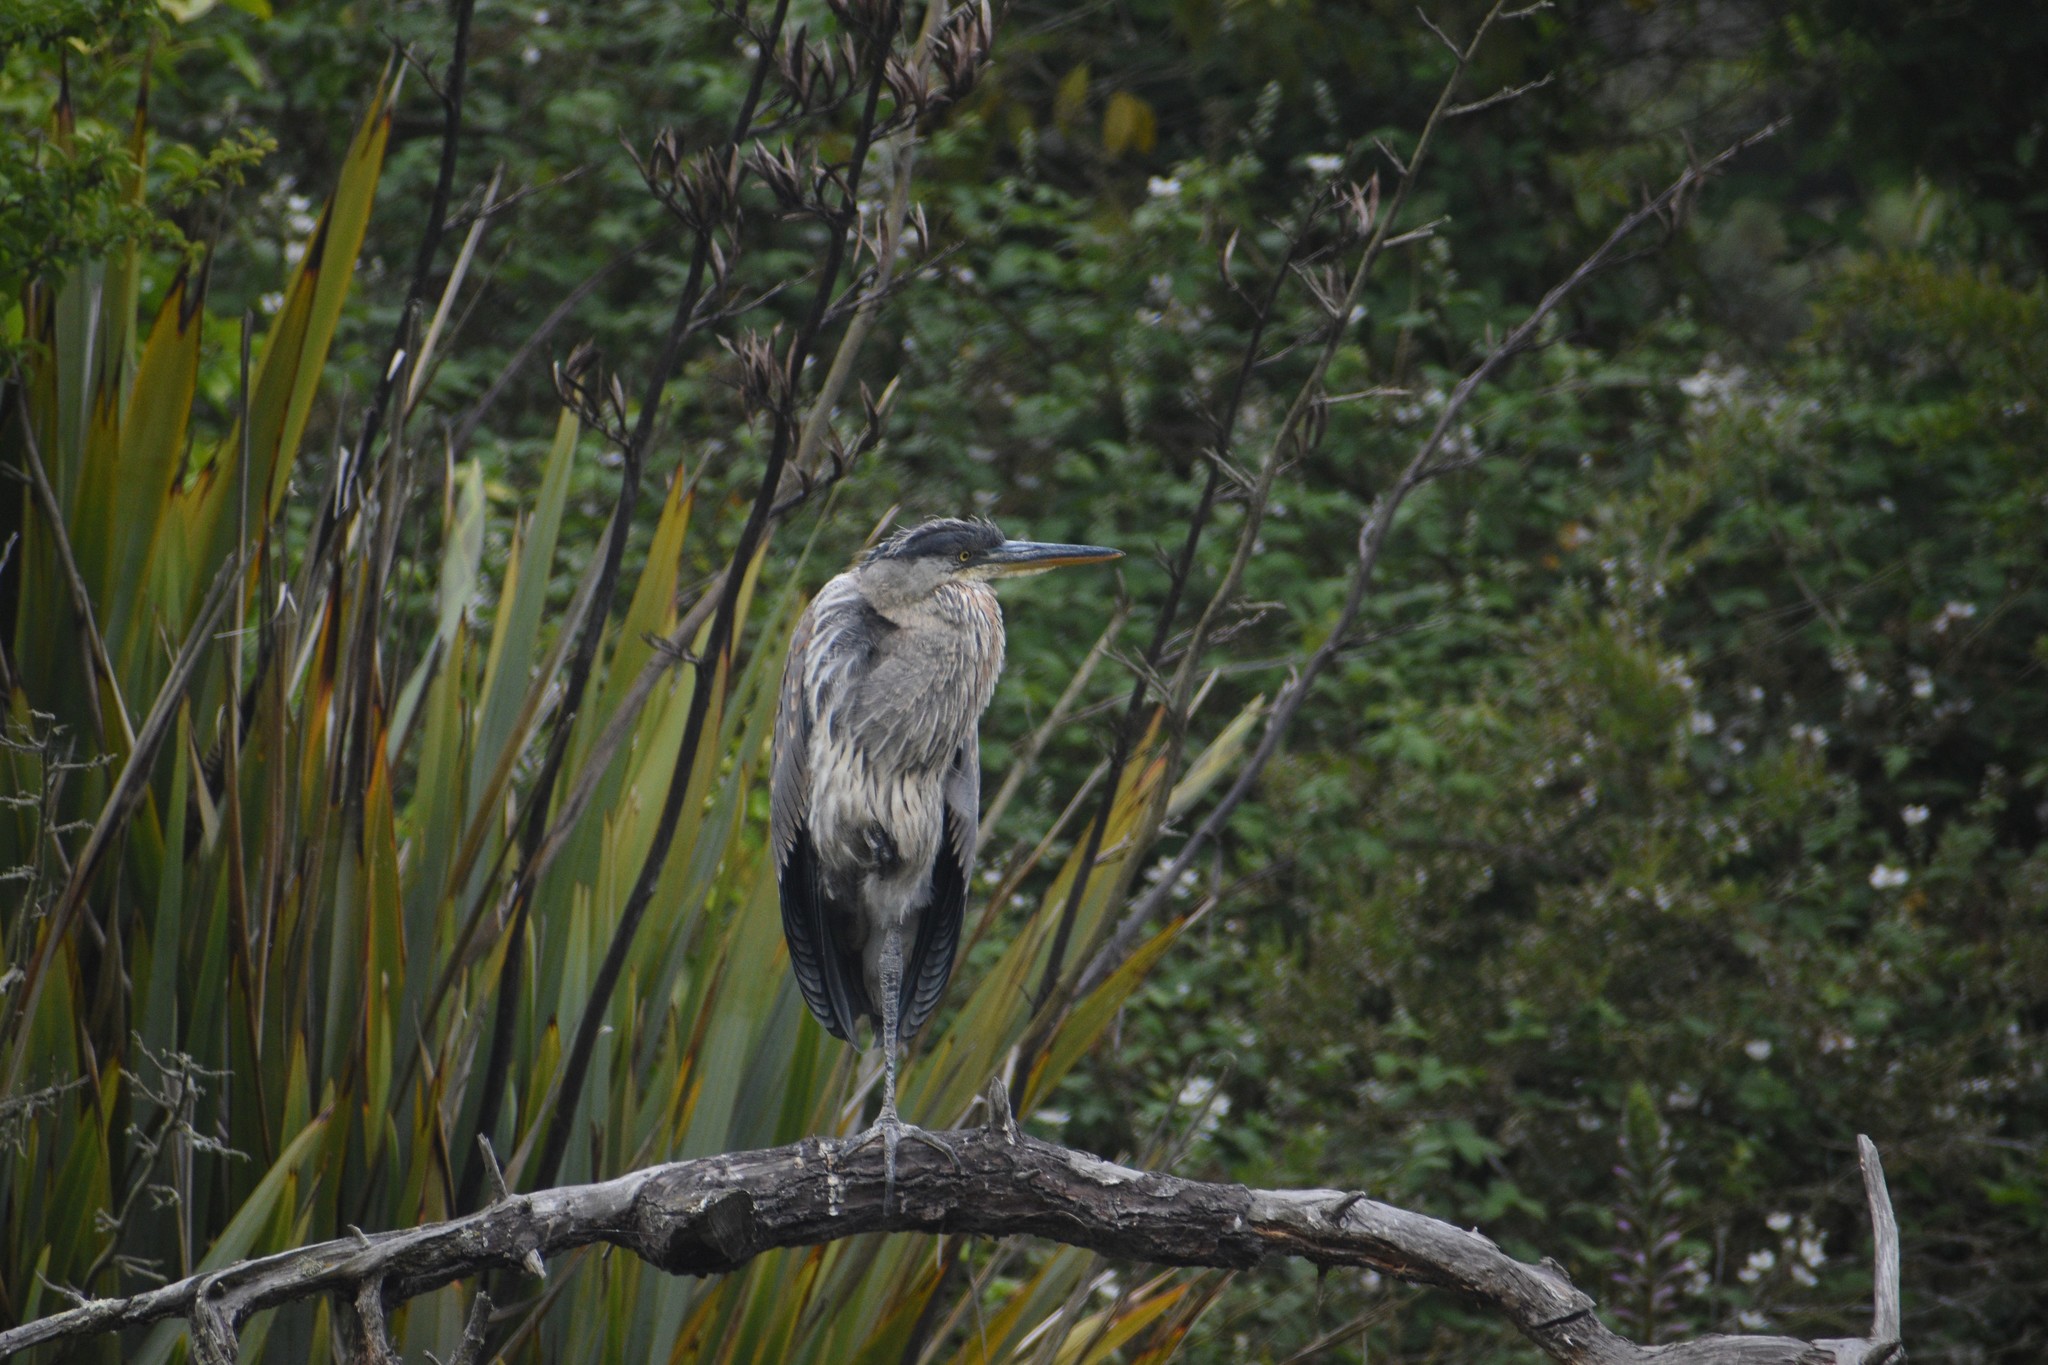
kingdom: Animalia
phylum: Chordata
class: Aves
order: Pelecaniformes
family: Ardeidae
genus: Ardea
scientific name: Ardea herodias
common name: Great blue heron
